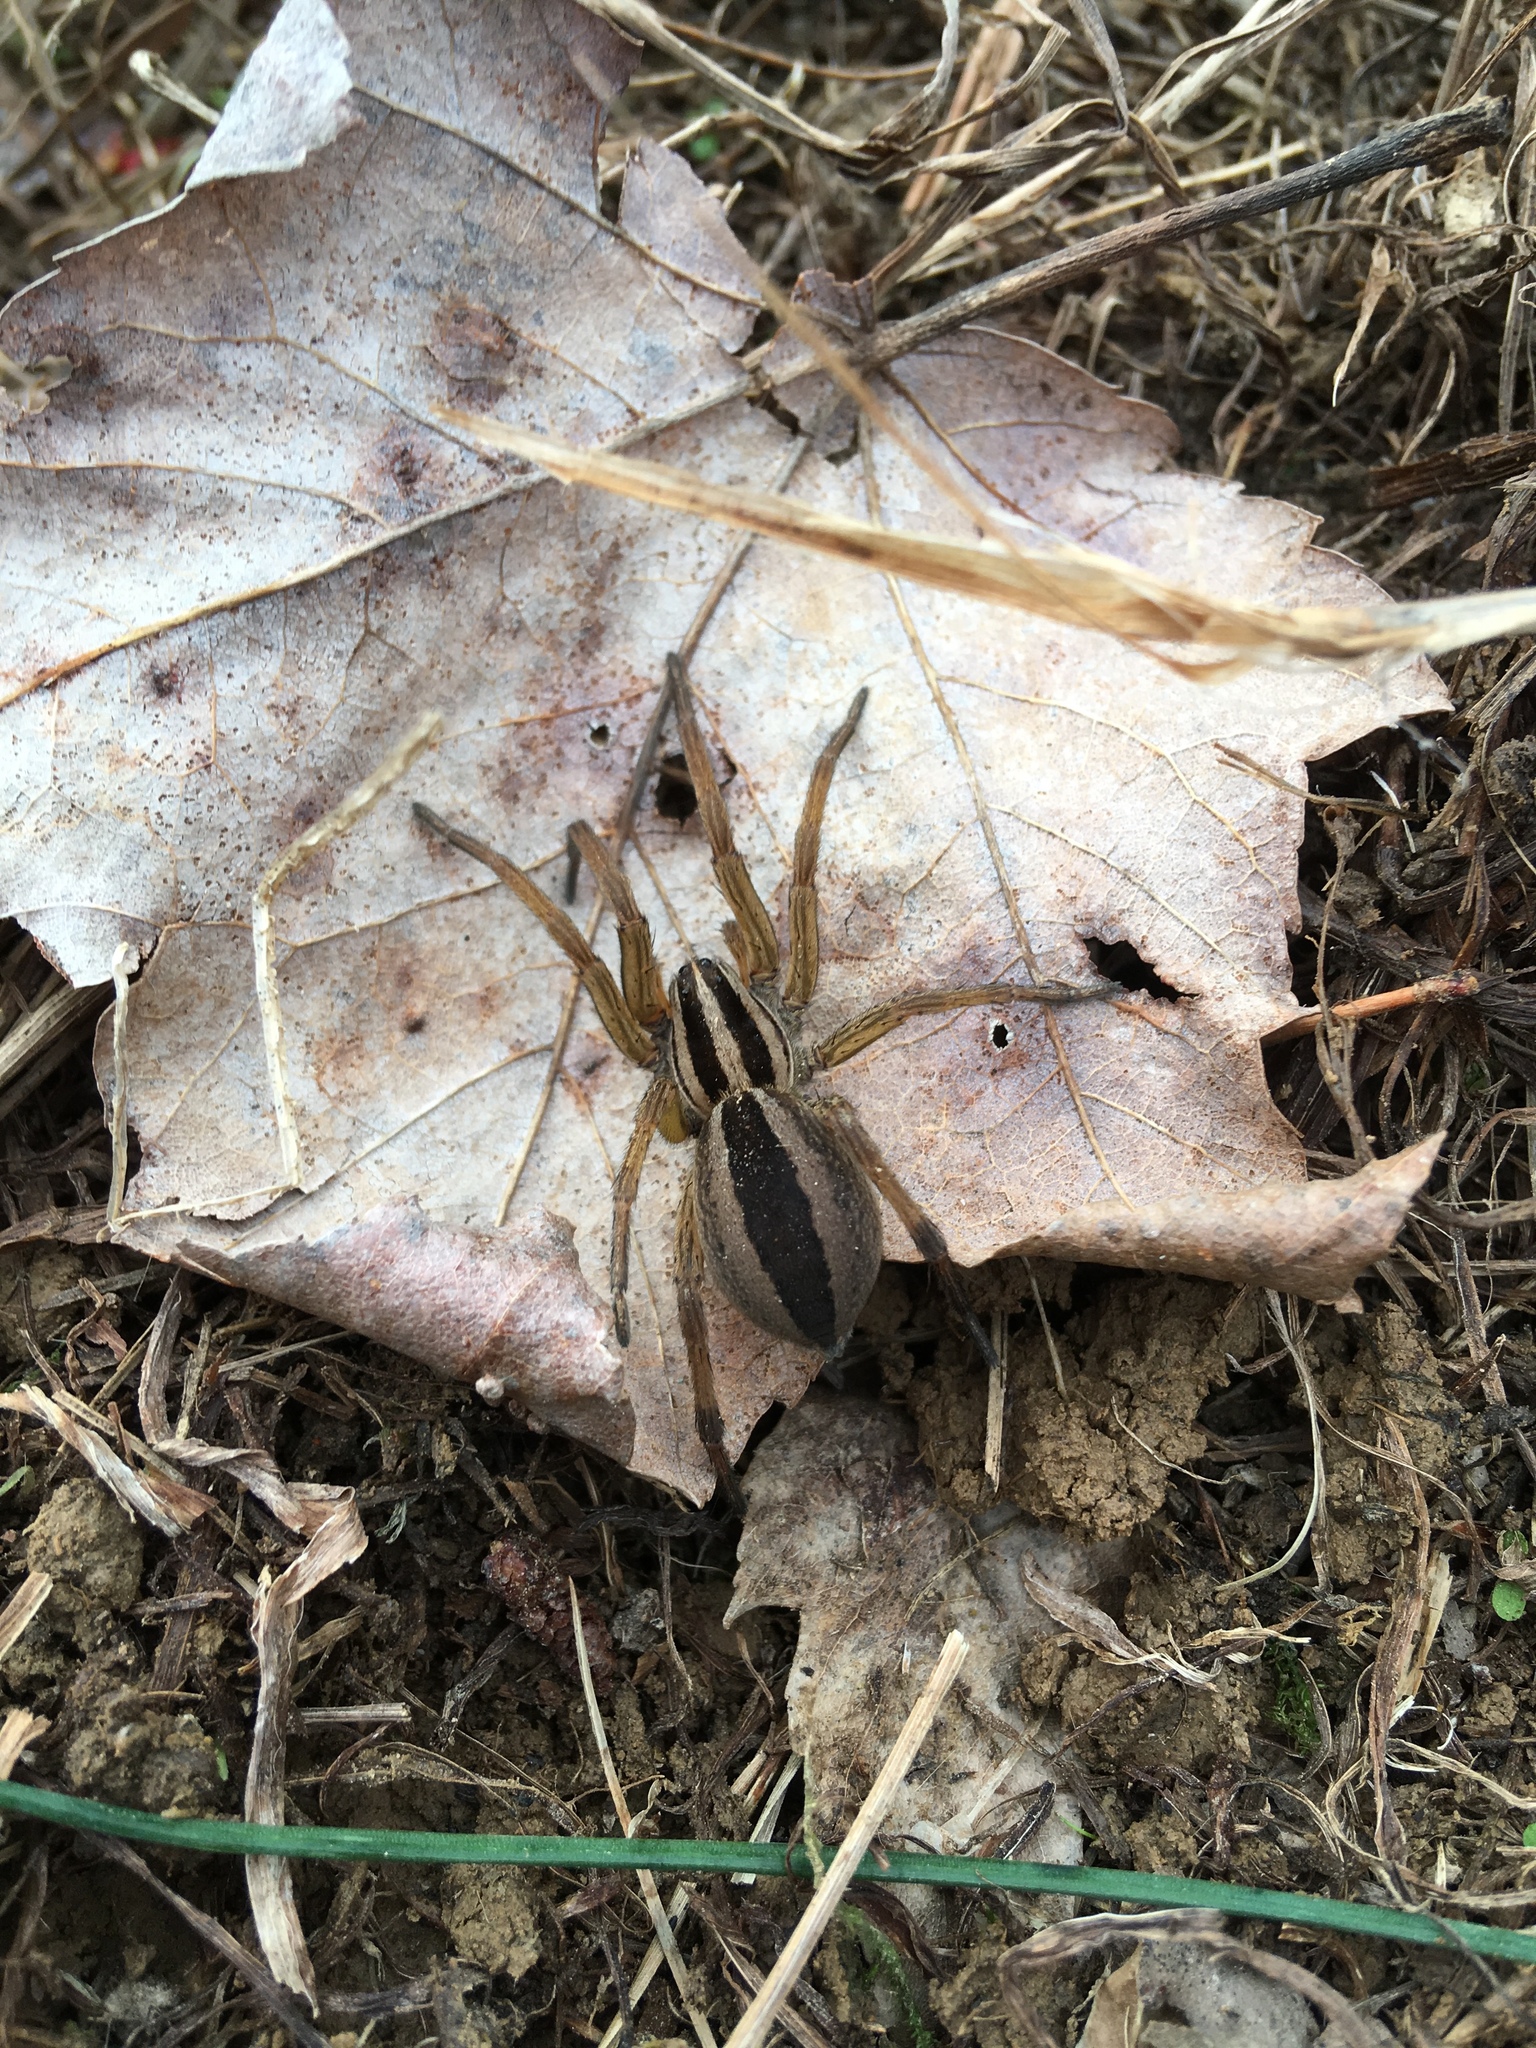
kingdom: Animalia
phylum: Arthropoda
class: Arachnida
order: Araneae
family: Lycosidae
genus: Rabidosa
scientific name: Rabidosa punctulata
